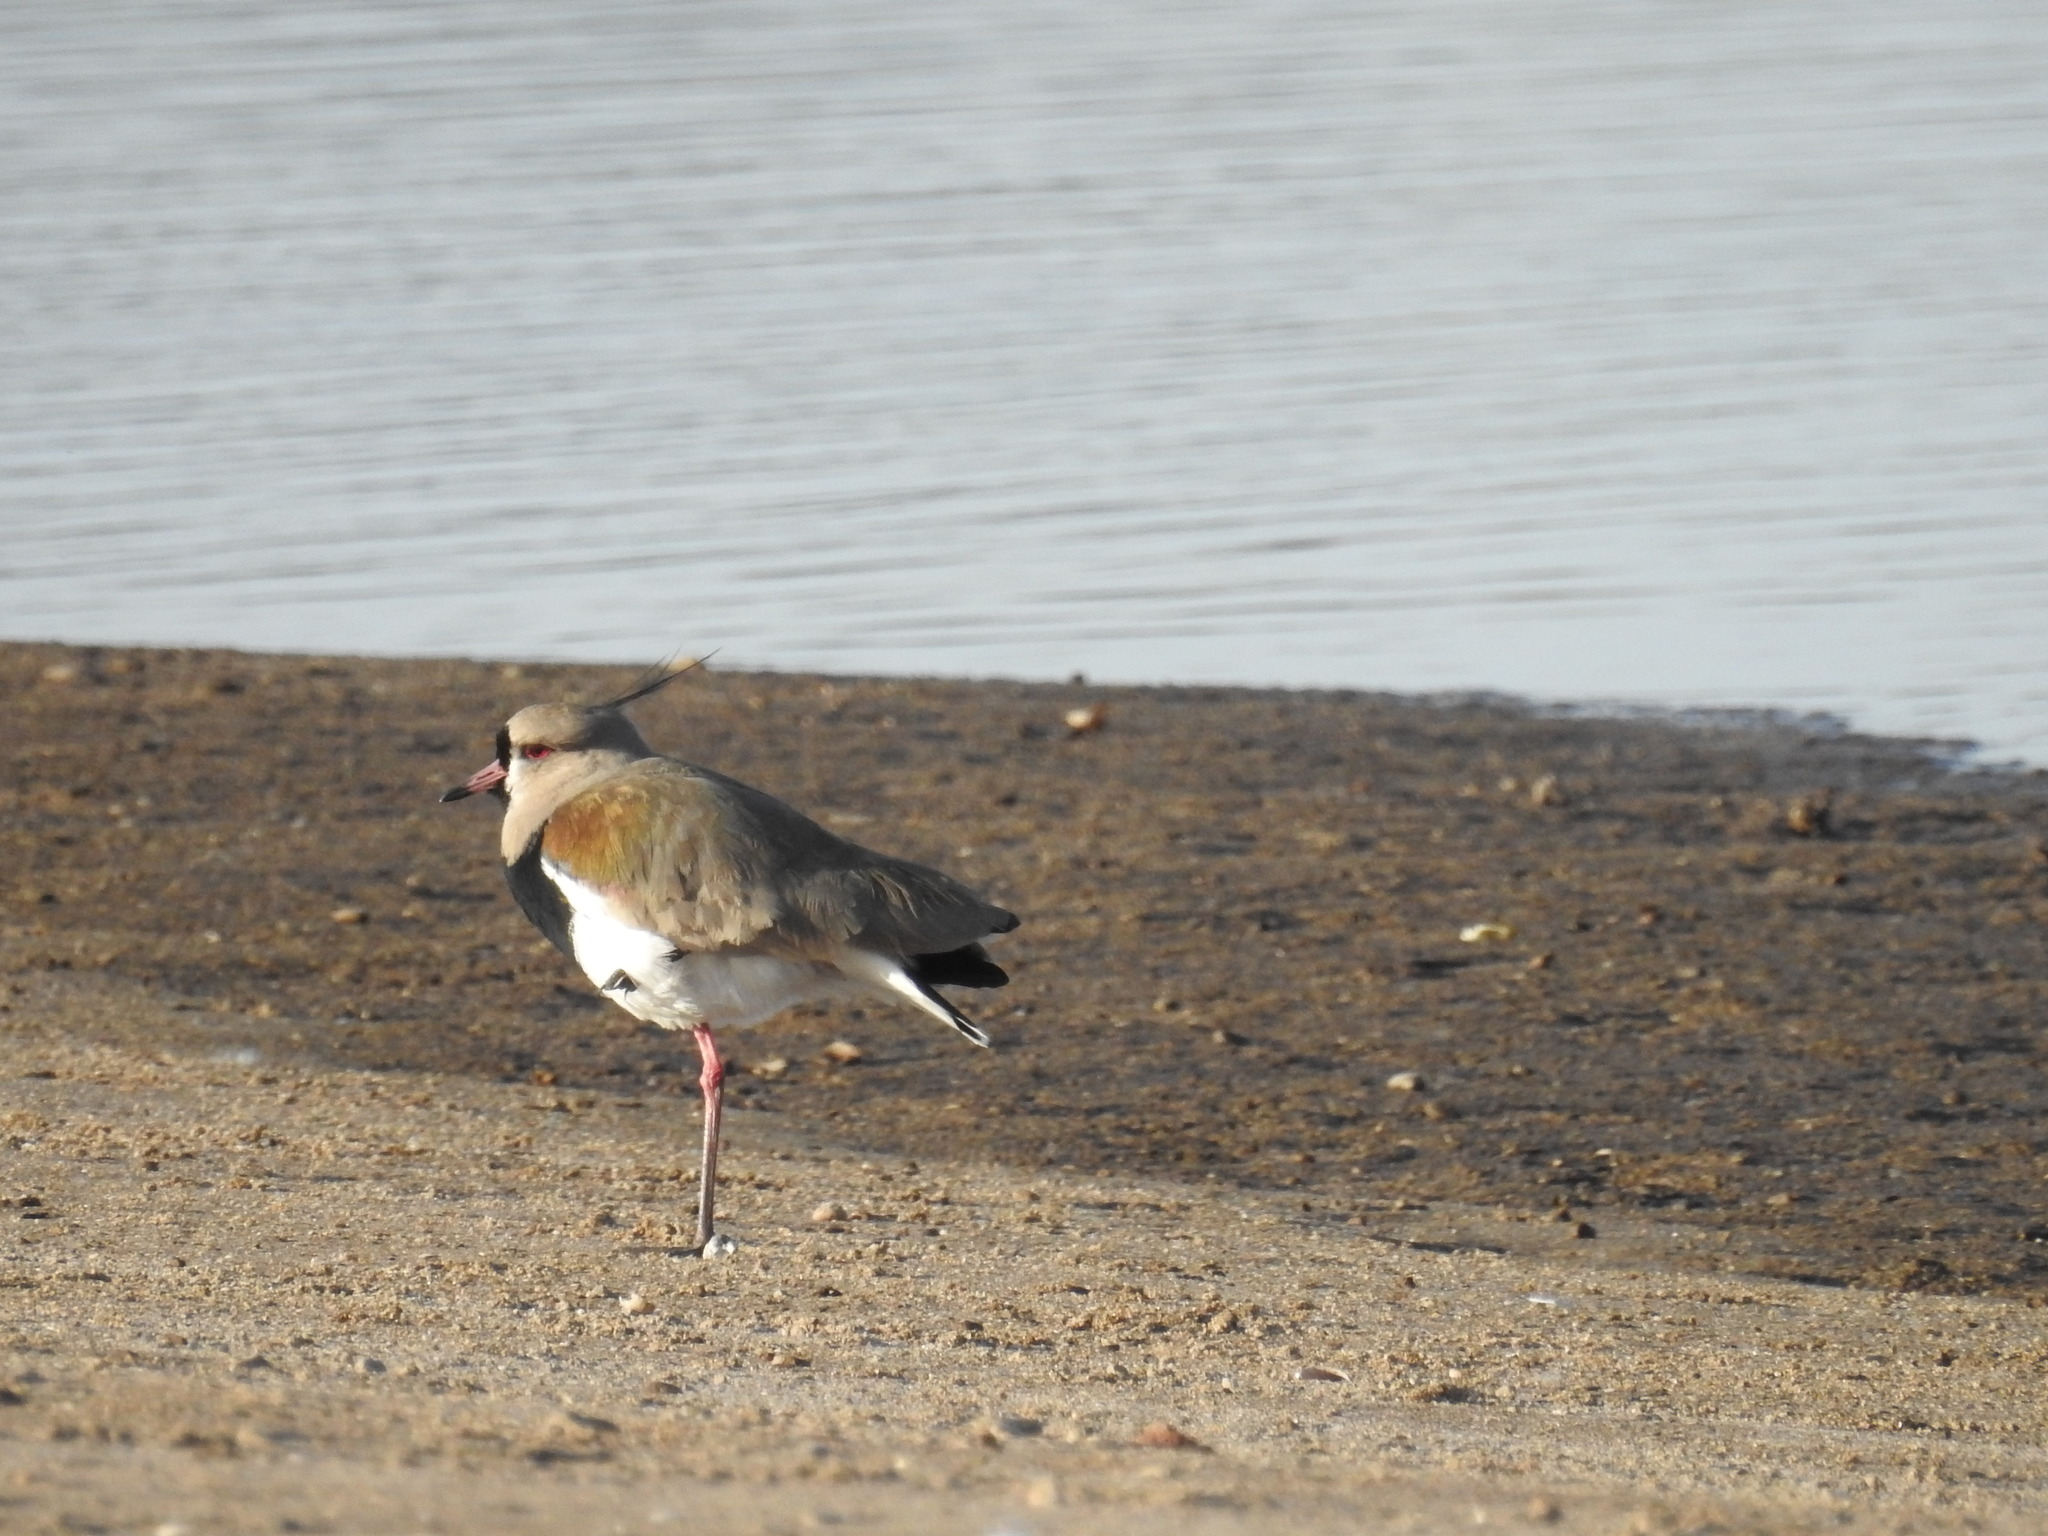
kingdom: Animalia
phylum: Chordata
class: Aves
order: Charadriiformes
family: Charadriidae
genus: Vanellus
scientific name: Vanellus chilensis
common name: Southern lapwing
